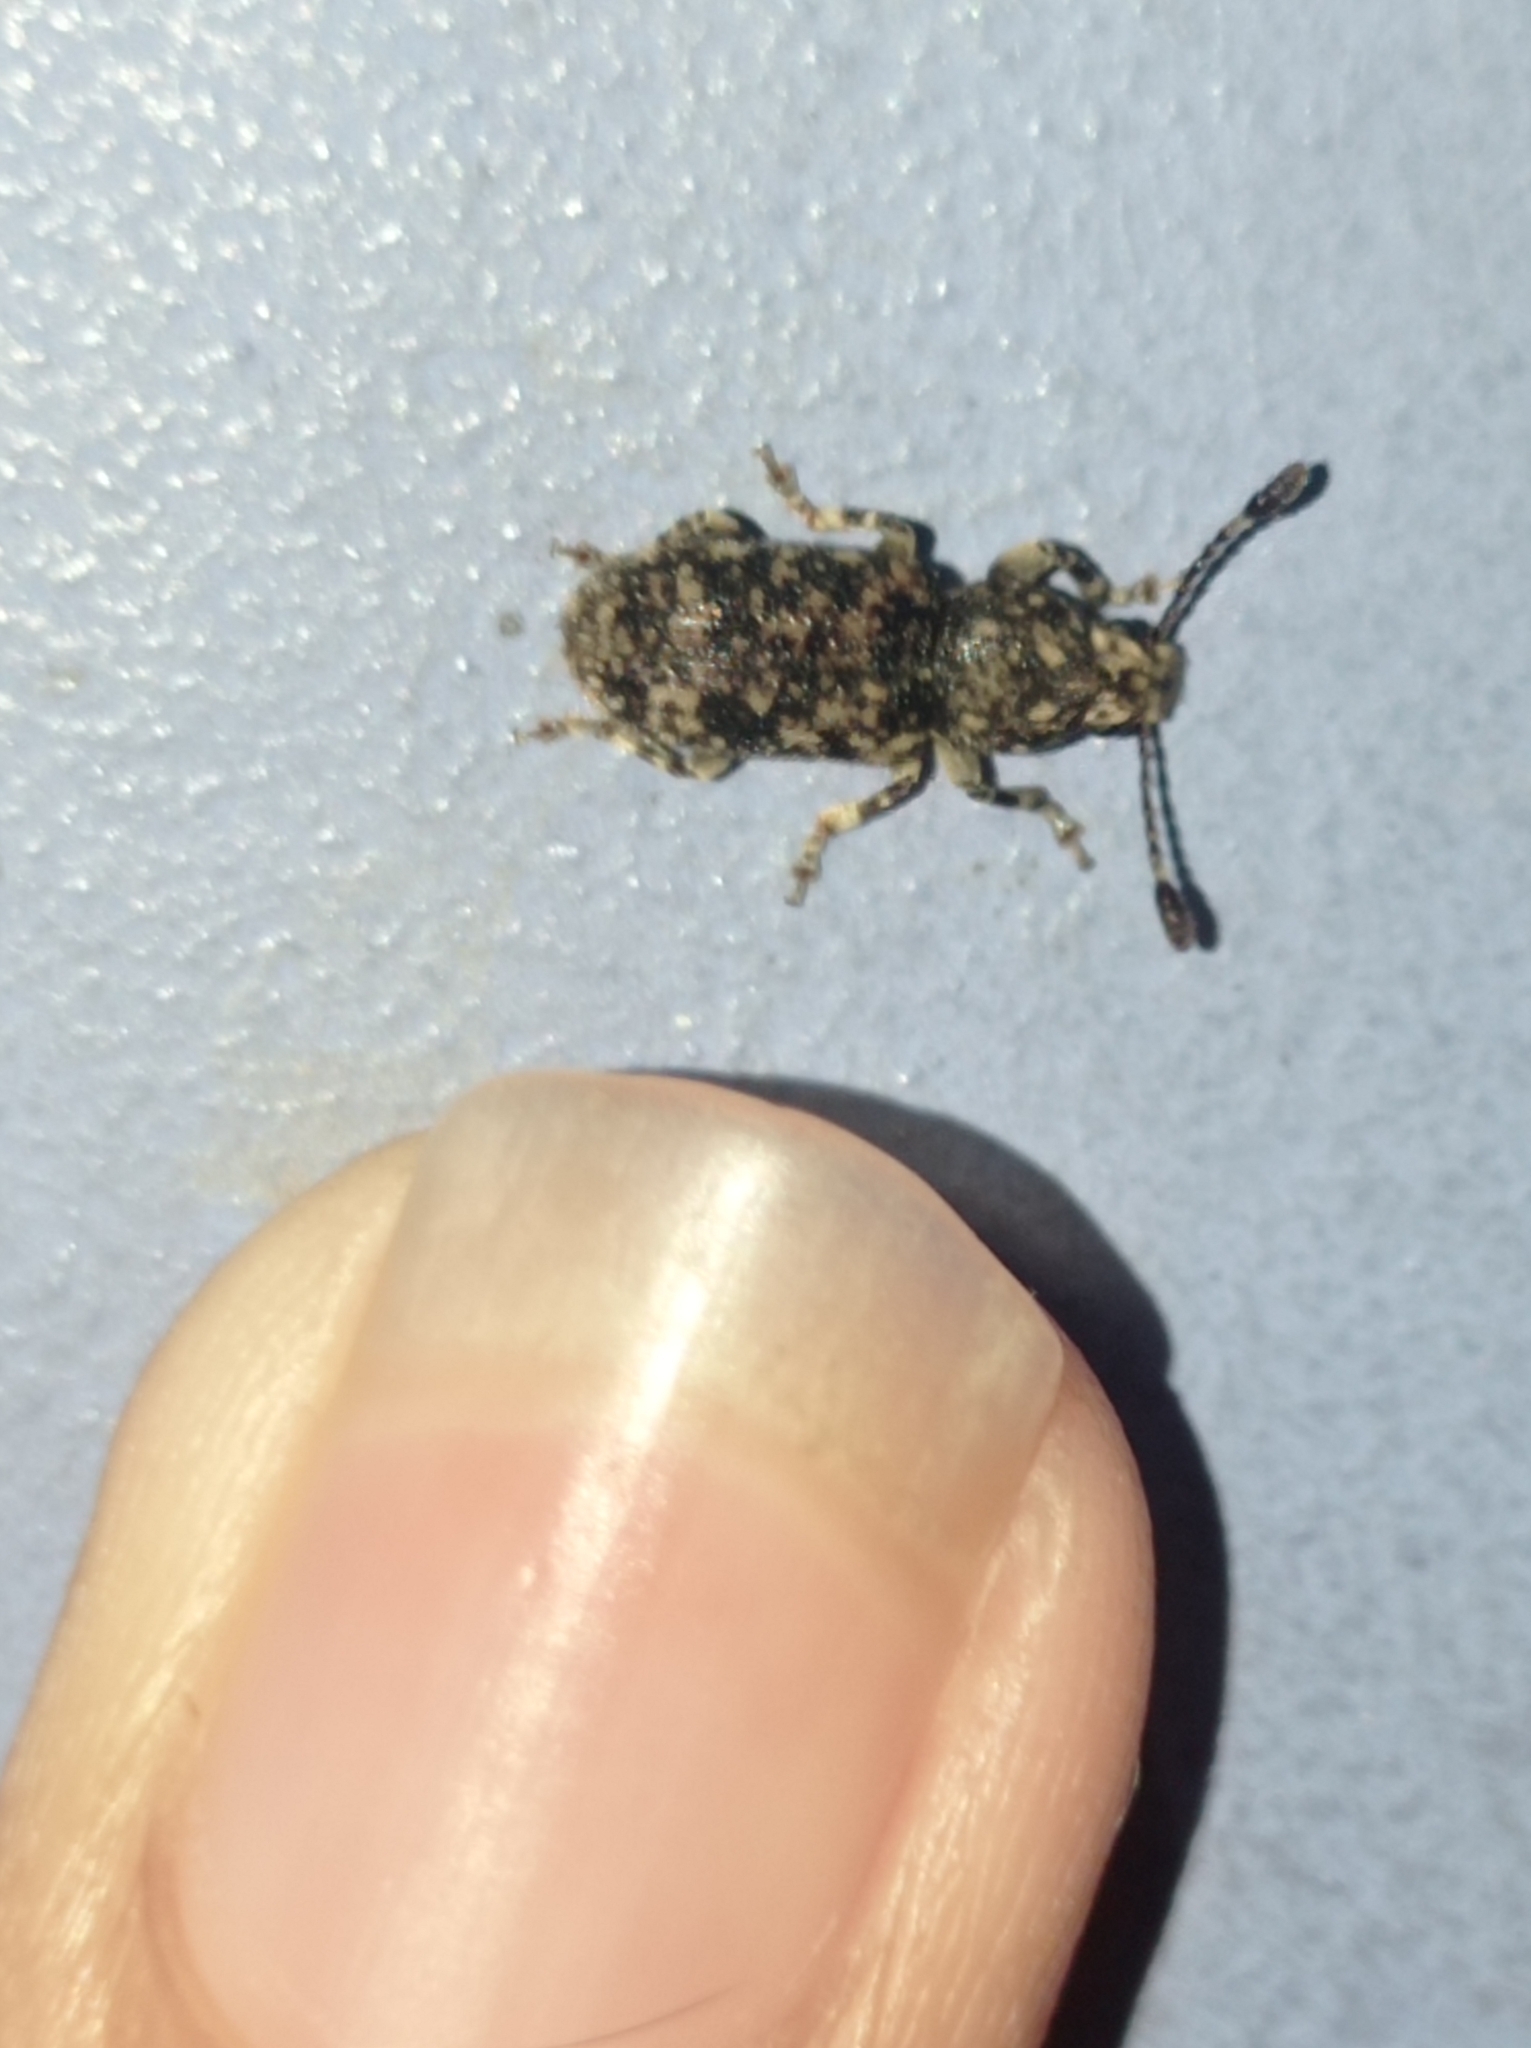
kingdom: Animalia
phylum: Arthropoda
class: Insecta
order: Coleoptera
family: Anthribidae
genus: Eucorynus
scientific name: Eucorynus crassicornis
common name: Fungus weevil
